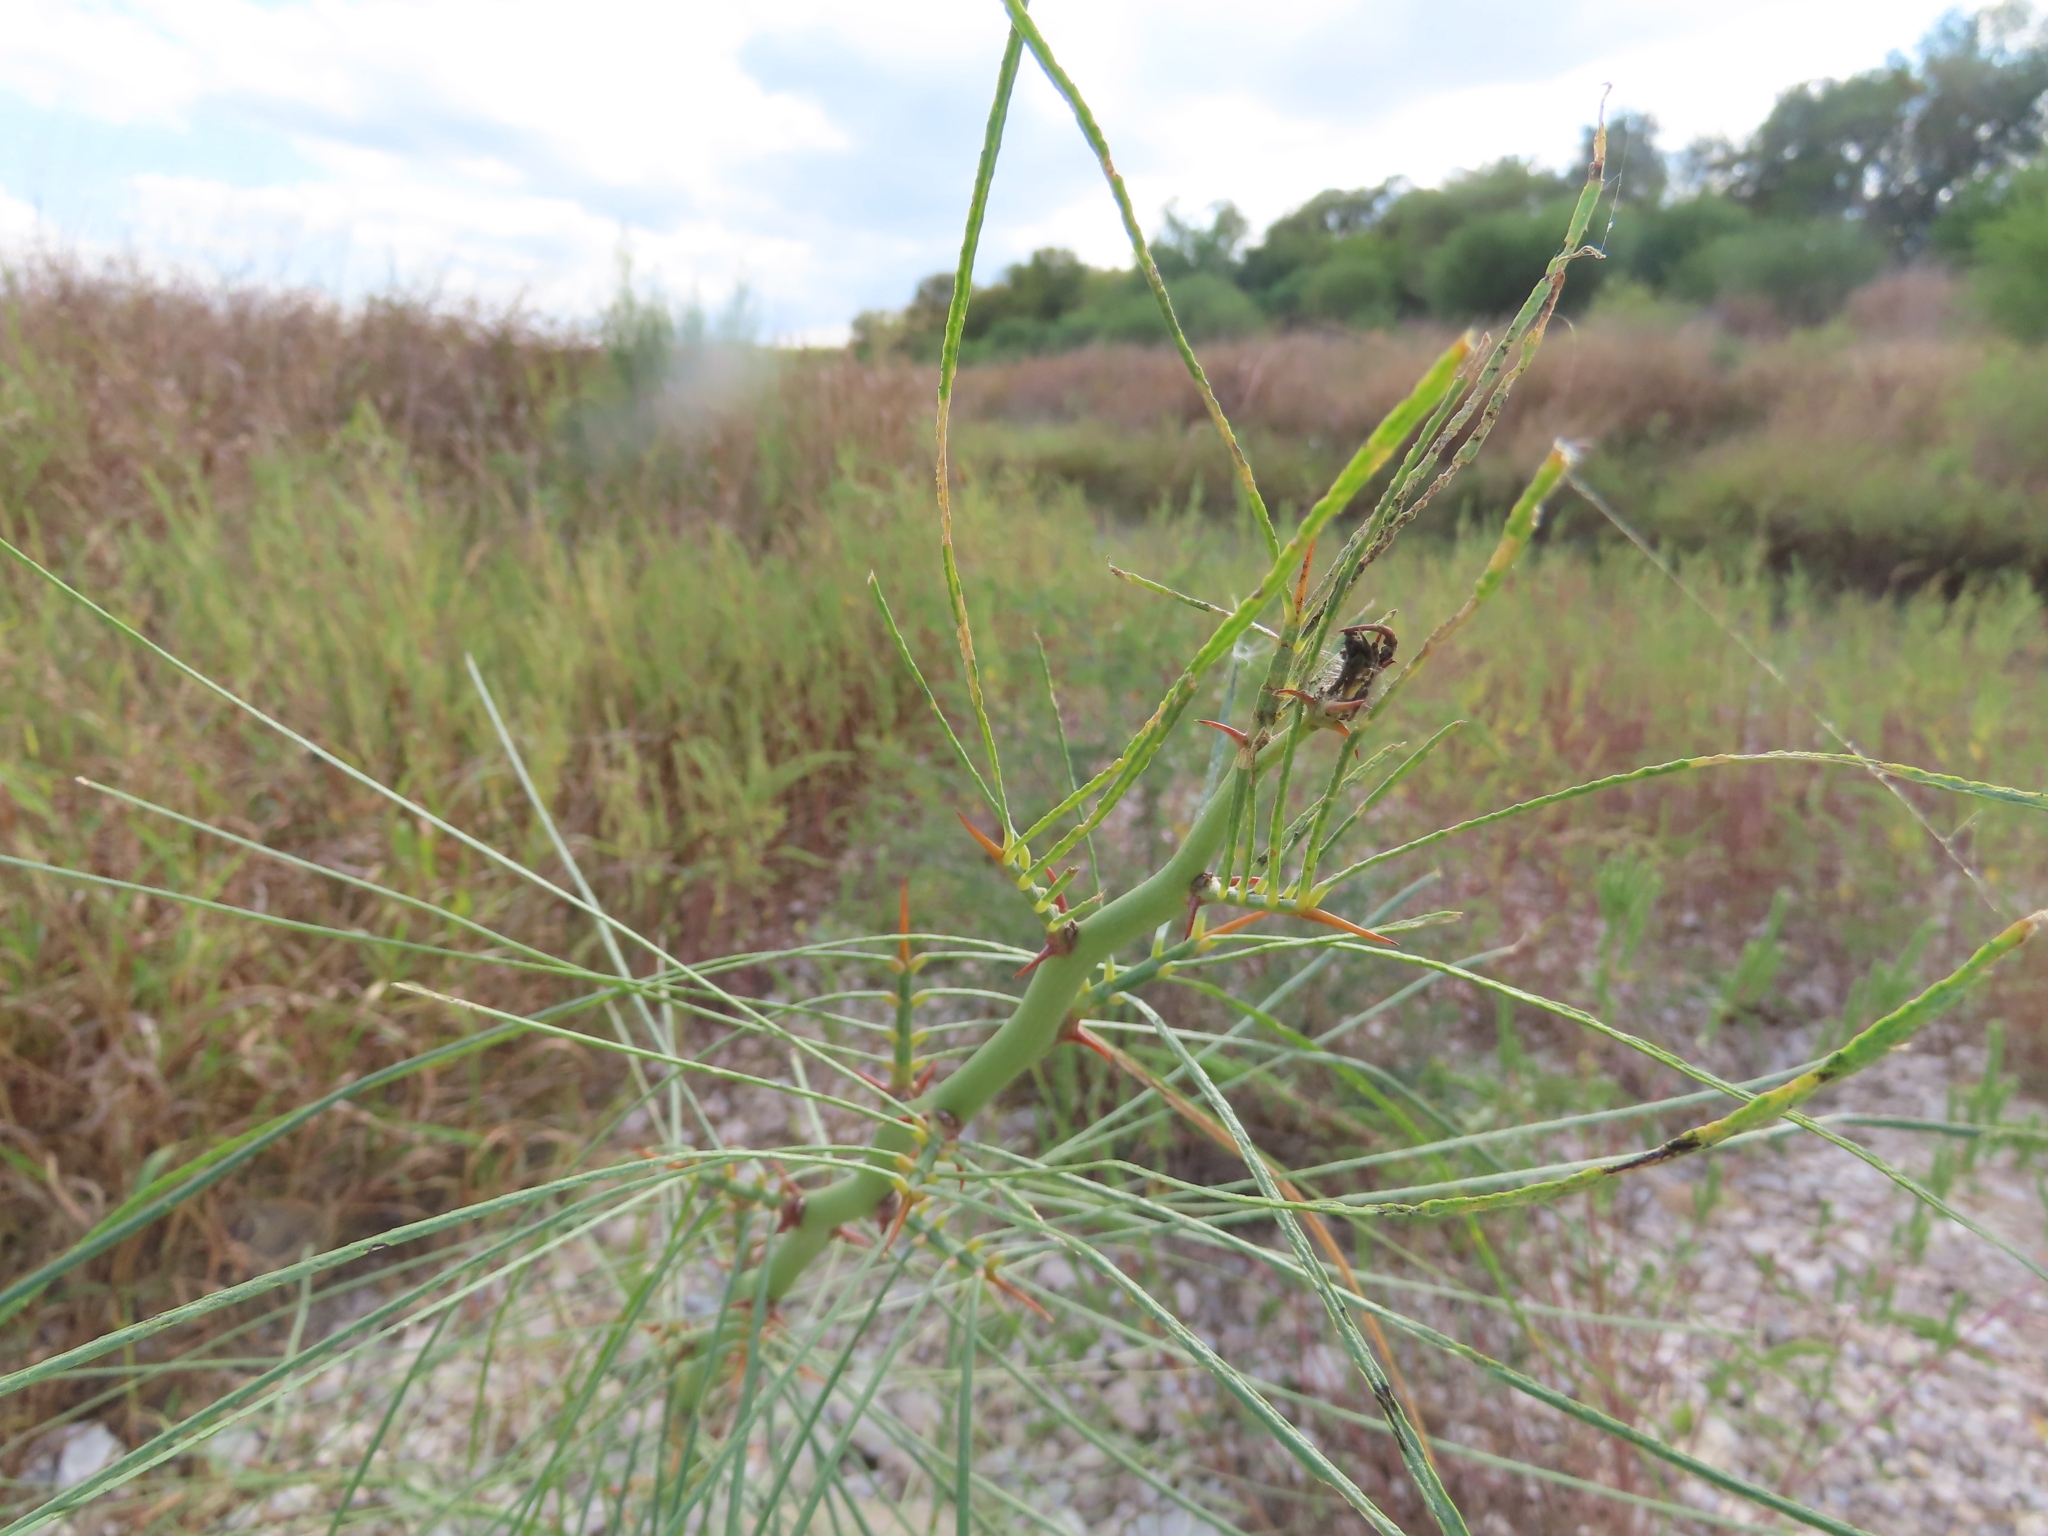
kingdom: Plantae
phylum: Tracheophyta
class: Magnoliopsida
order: Fabales
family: Fabaceae
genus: Parkinsonia
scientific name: Parkinsonia aculeata
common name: Jerusalem thorn
